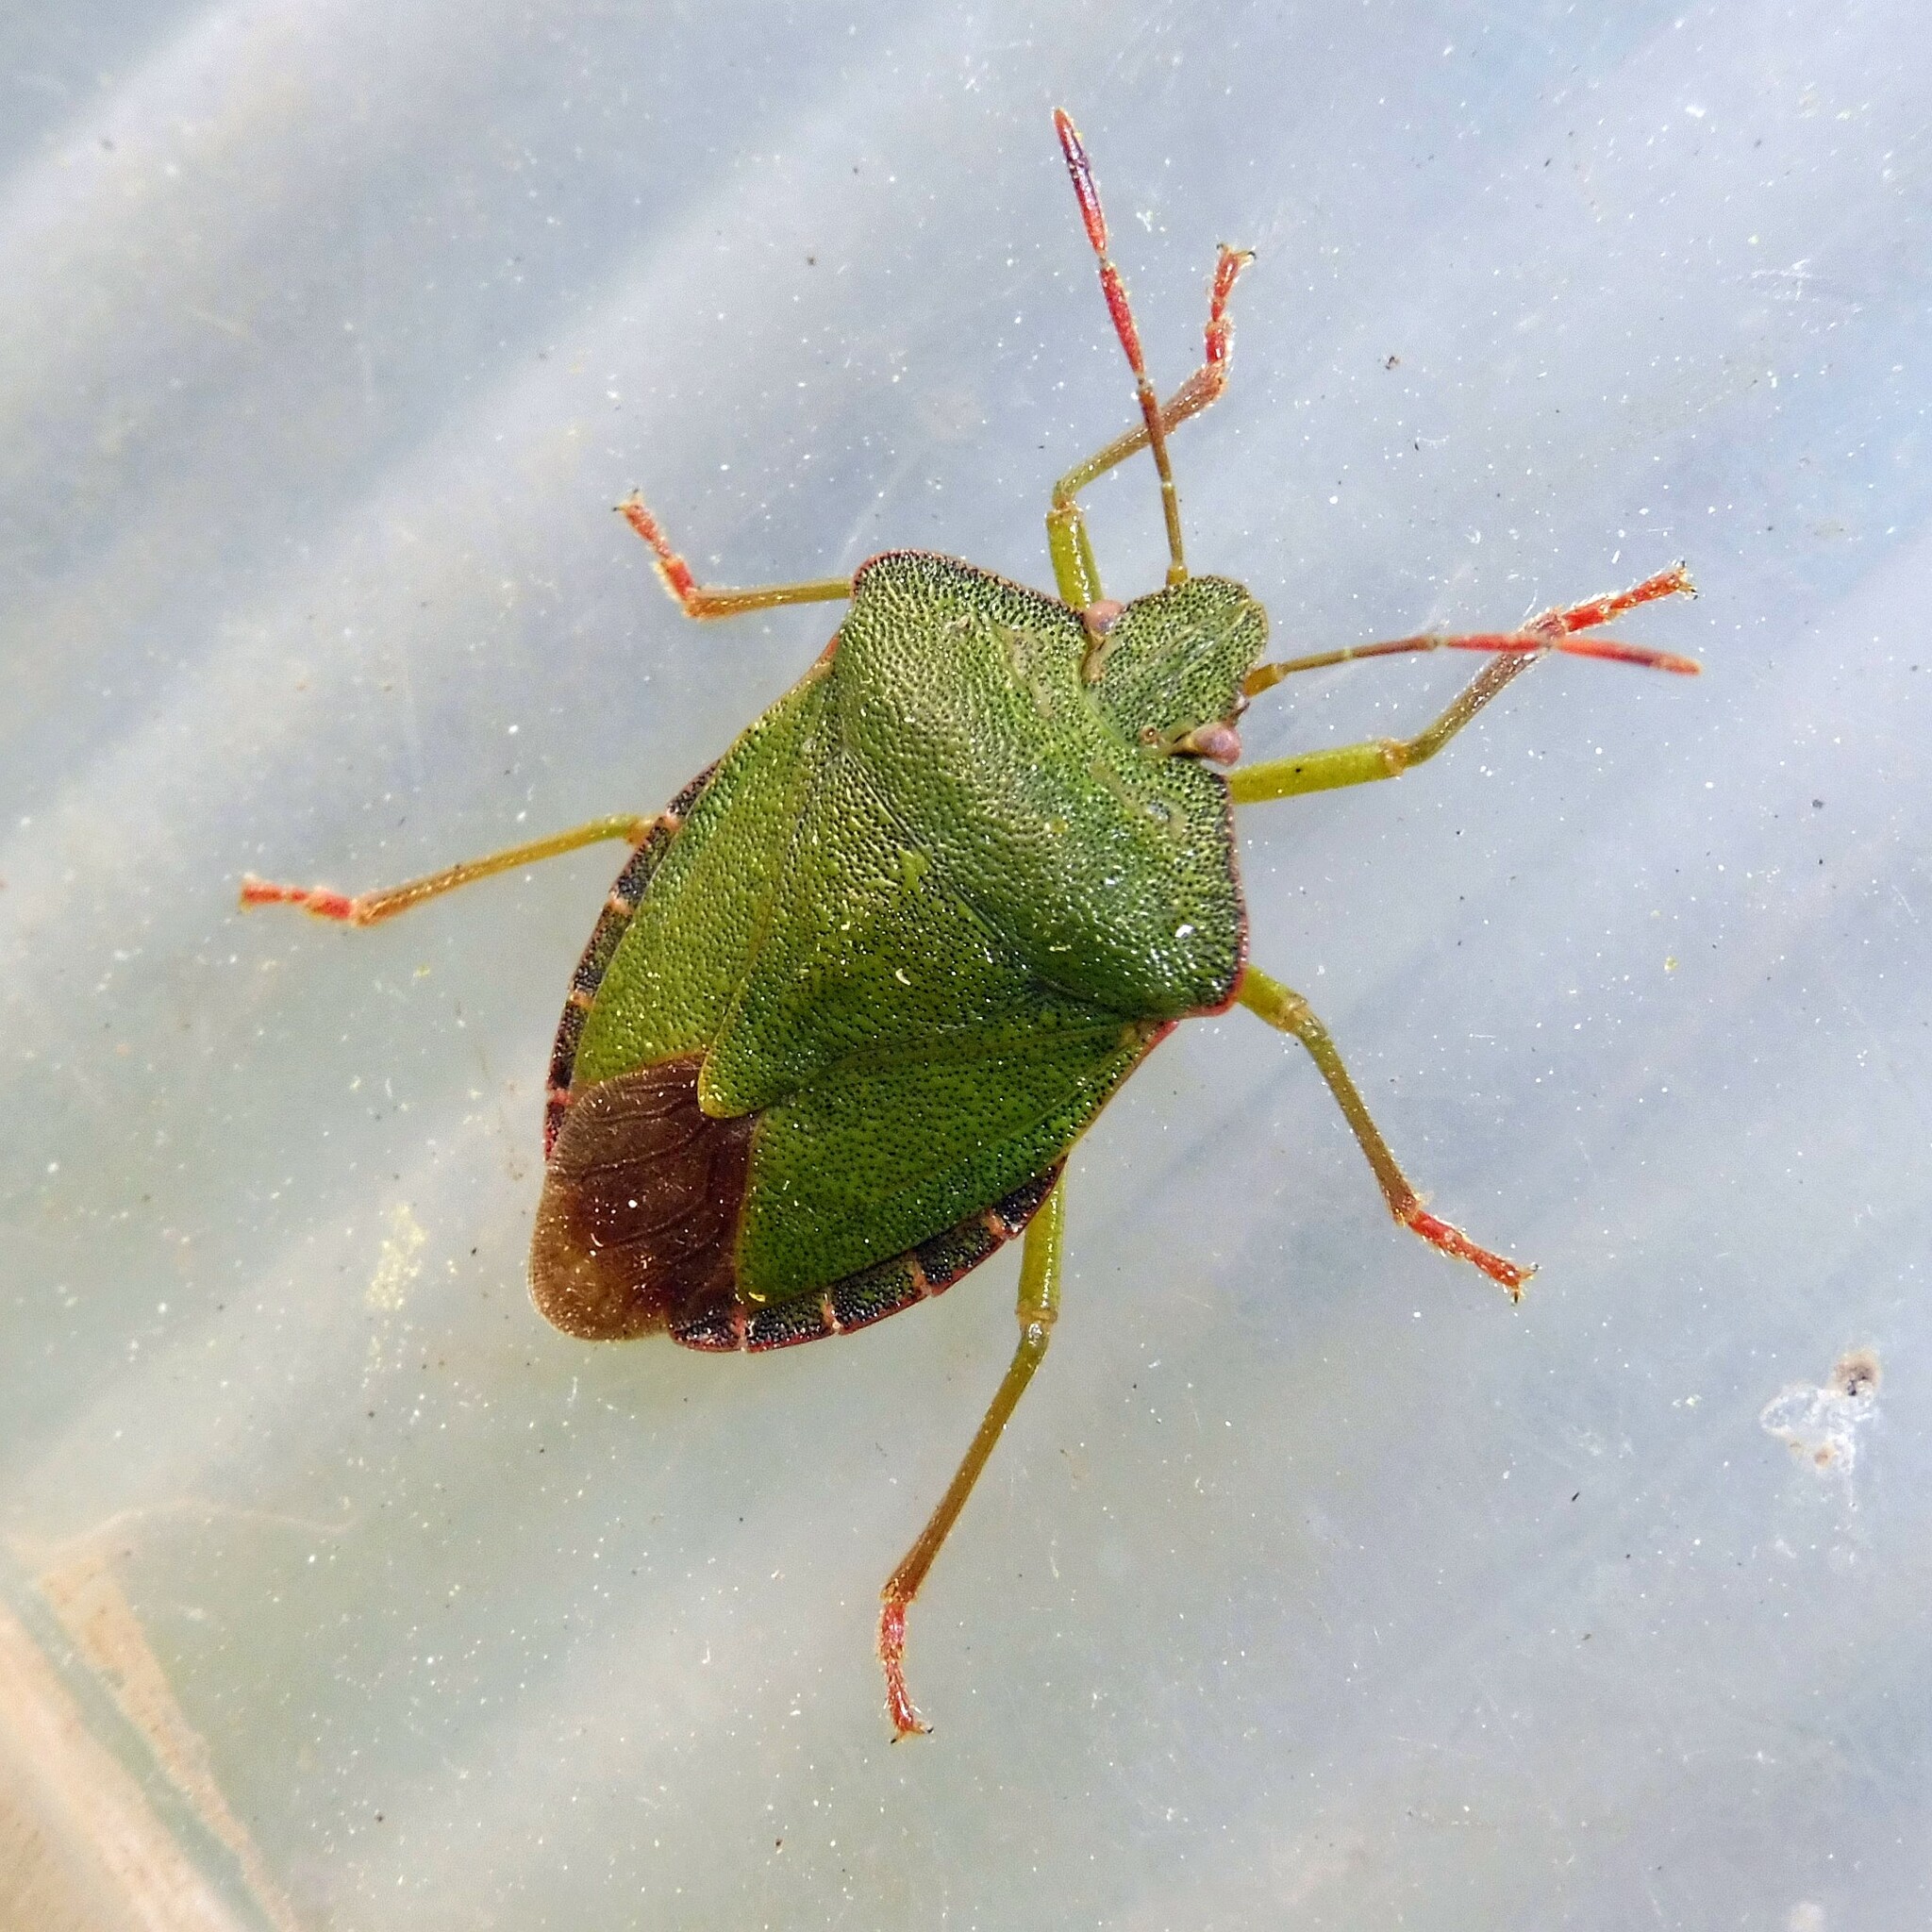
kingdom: Animalia
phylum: Arthropoda
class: Insecta
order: Hemiptera
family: Pentatomidae
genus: Palomena
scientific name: Palomena prasina
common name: Green shieldbug
